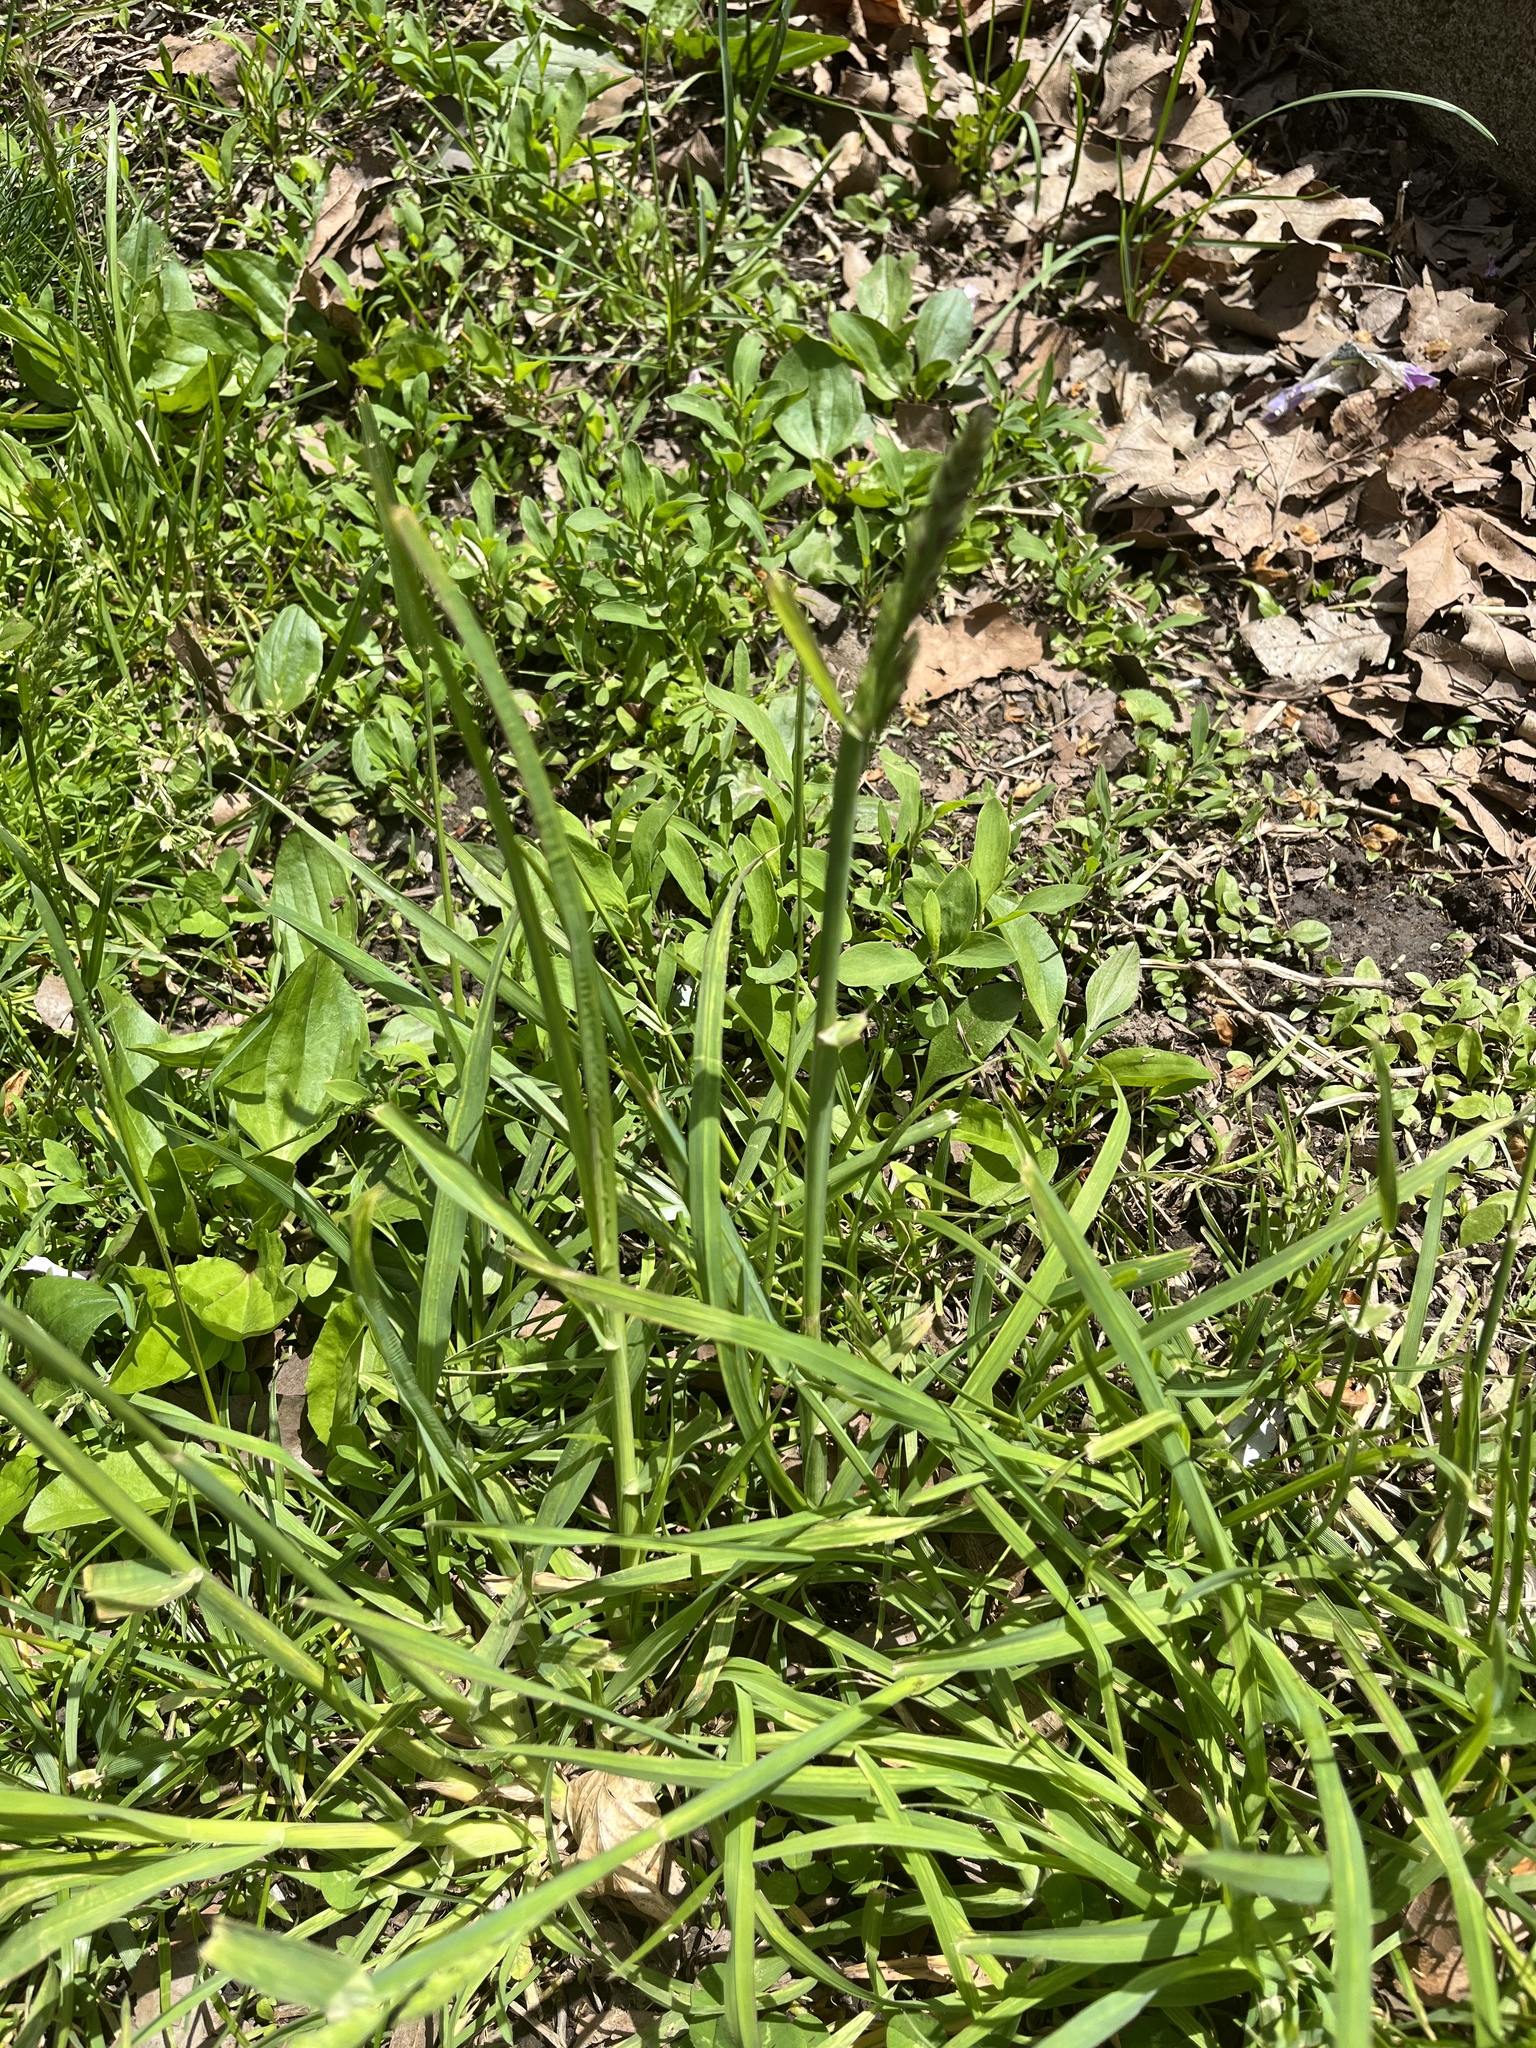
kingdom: Plantae
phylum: Tracheophyta
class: Liliopsida
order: Poales
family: Poaceae
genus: Dactylis
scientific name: Dactylis glomerata
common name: Orchardgrass
